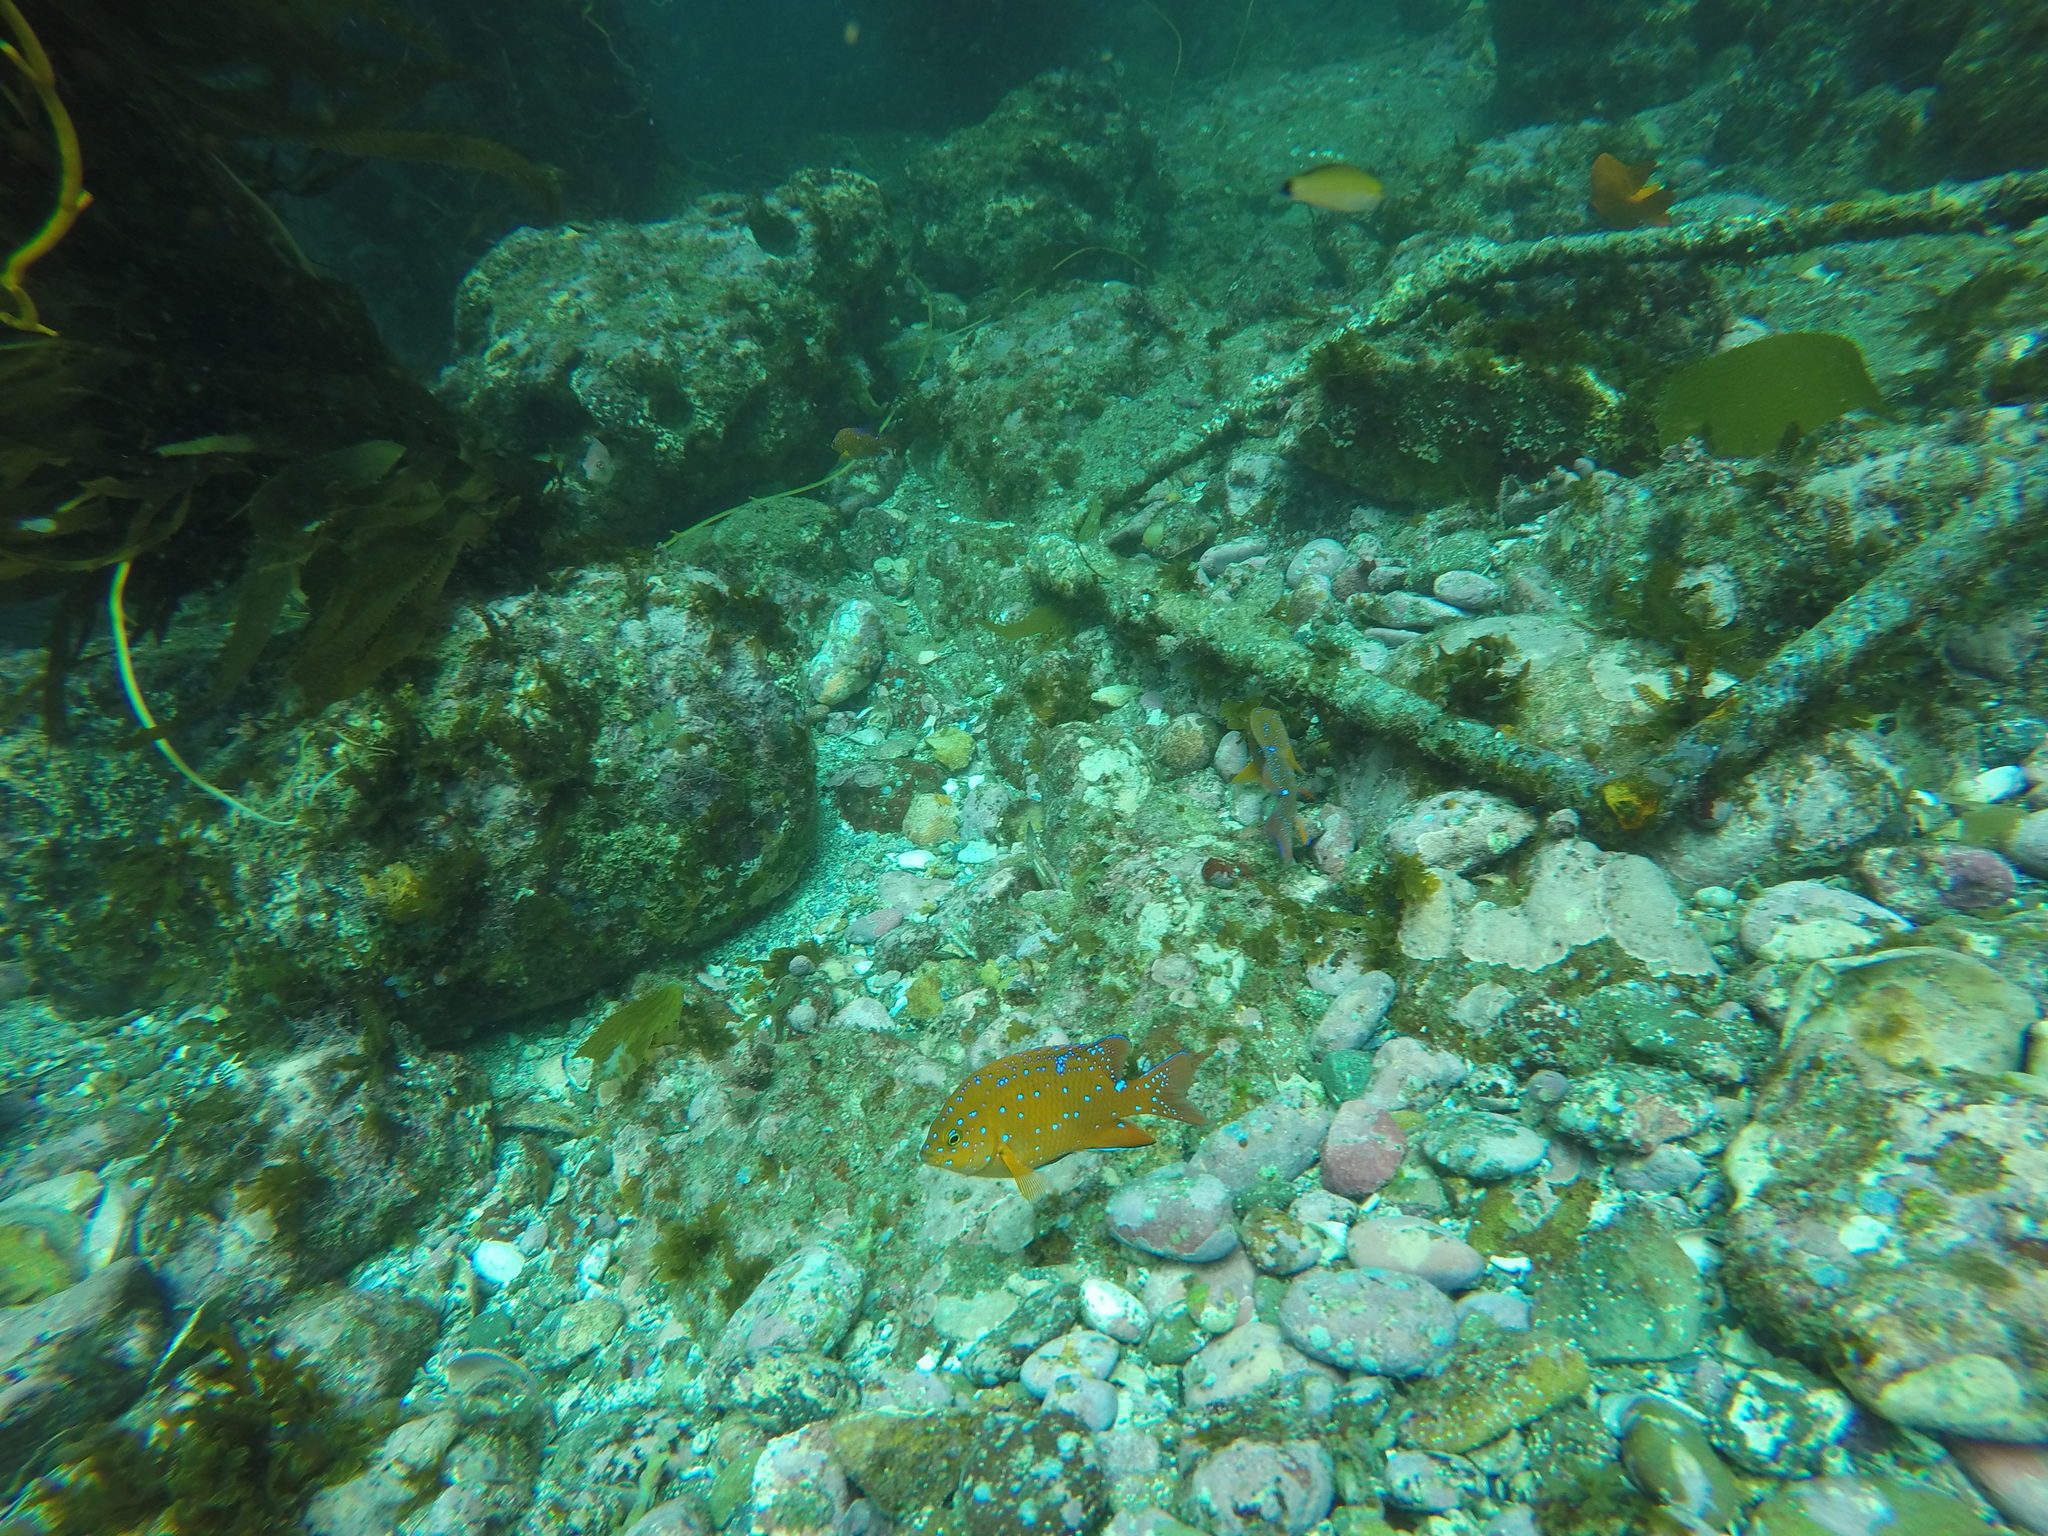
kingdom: Animalia
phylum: Chordata
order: Perciformes
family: Pomacentridae
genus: Hypsypops
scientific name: Hypsypops rubicundus
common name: Garibaldi
